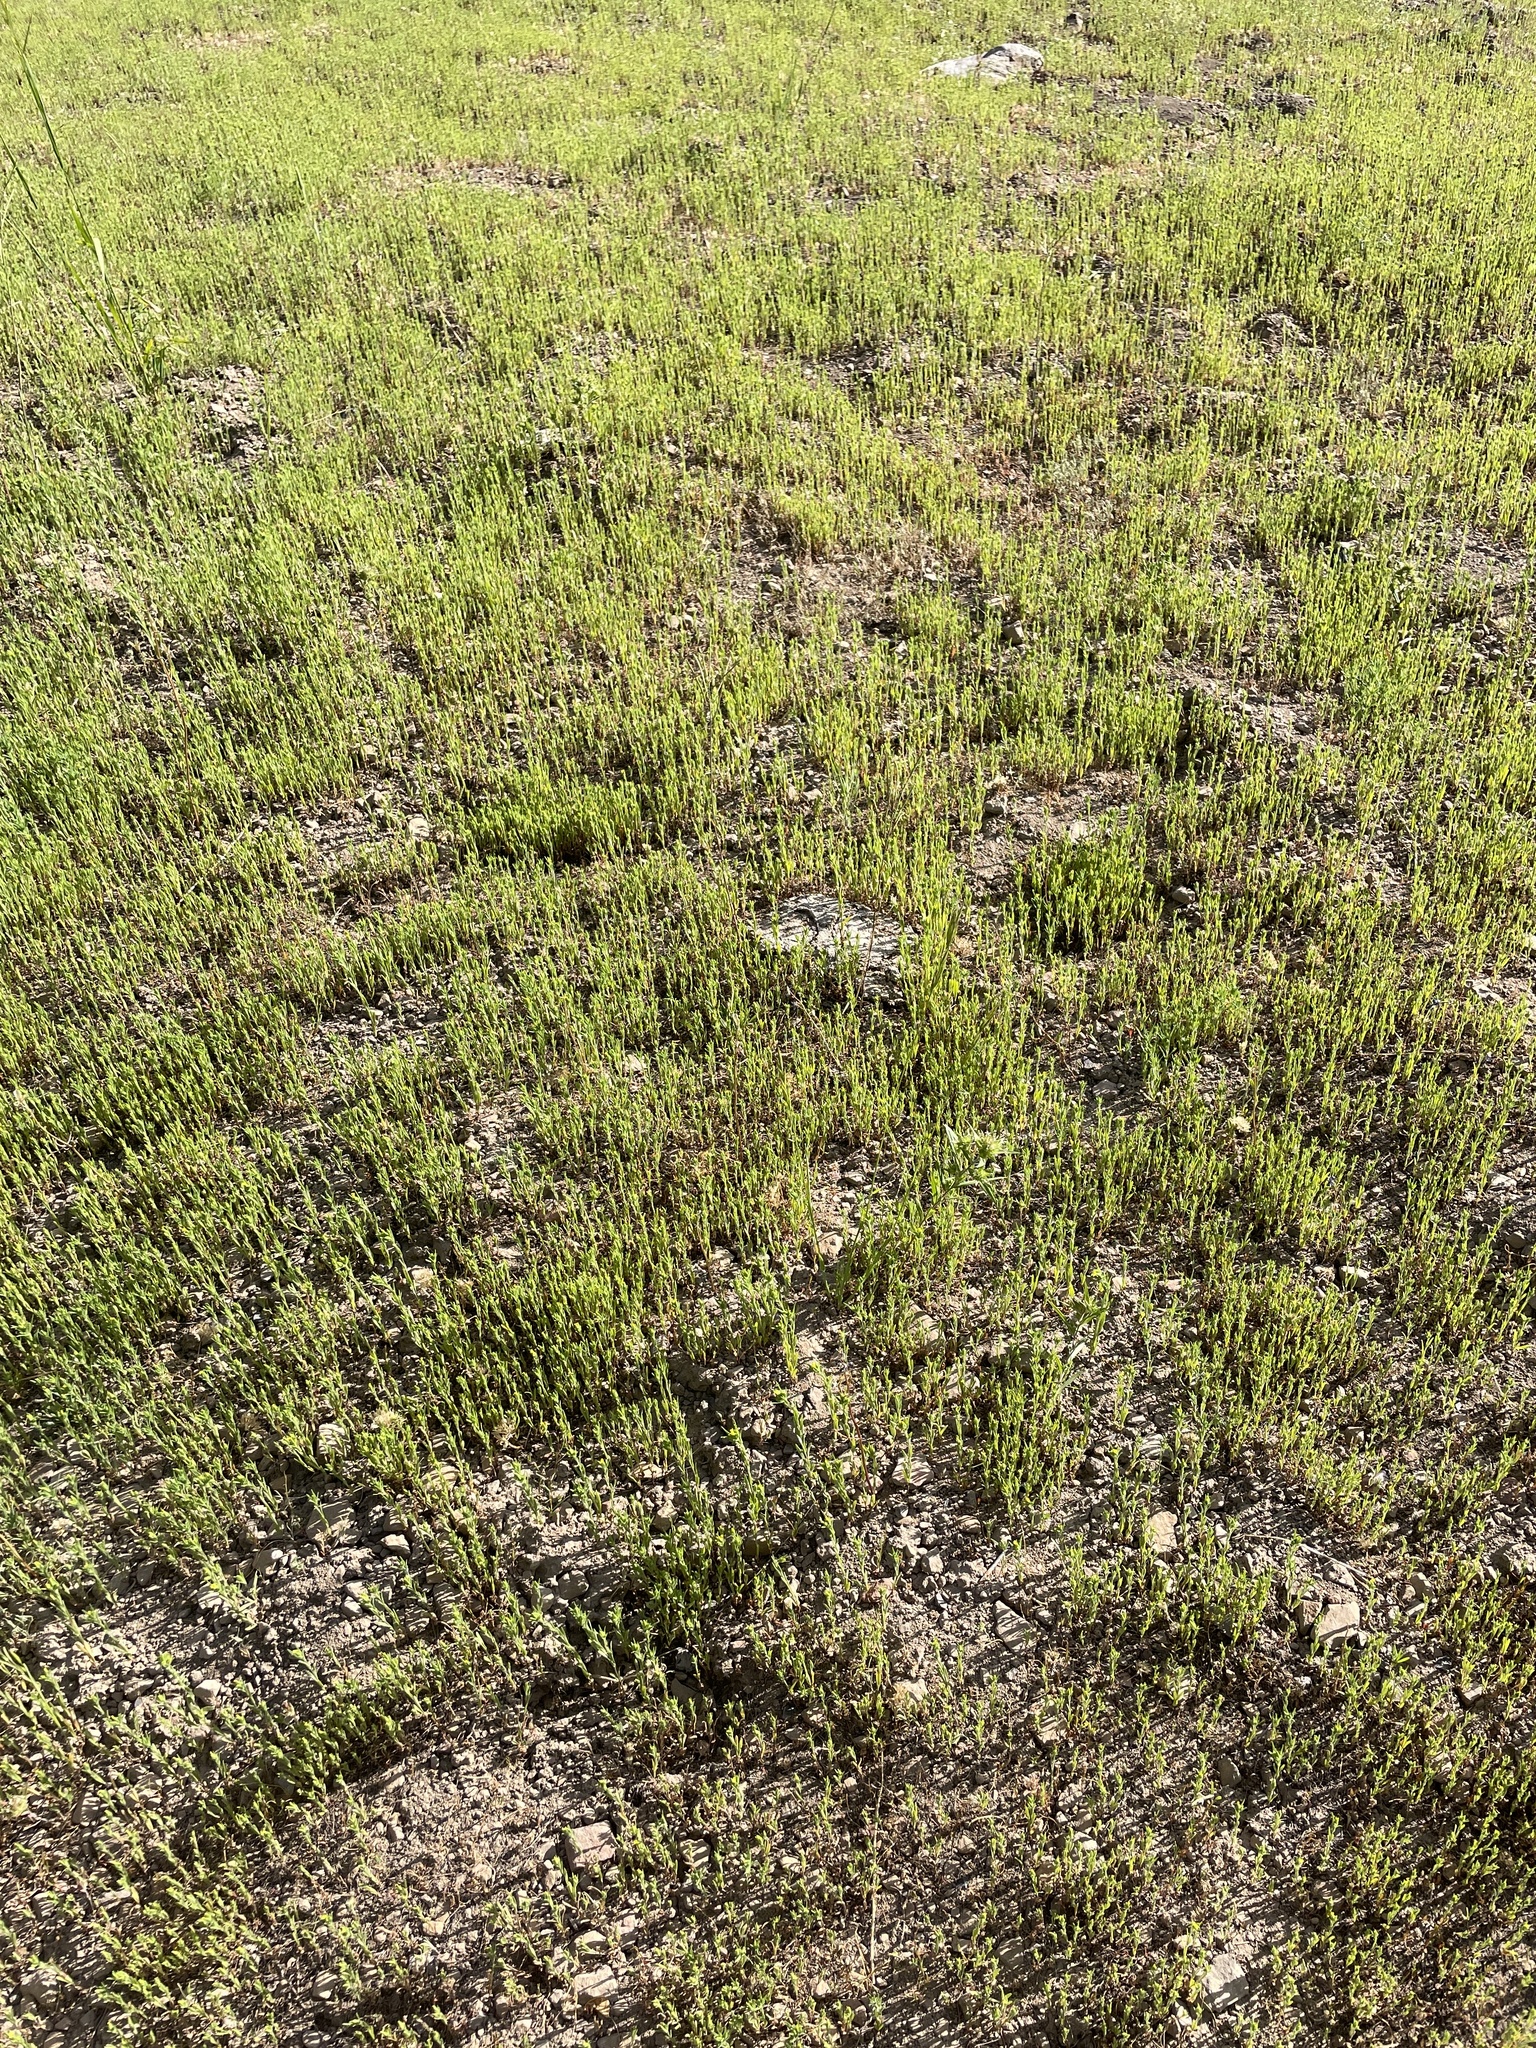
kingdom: Plantae
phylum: Tracheophyta
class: Magnoliopsida
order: Asterales
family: Asteraceae
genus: Madia
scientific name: Madia glomerata
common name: Mountain tarweed
